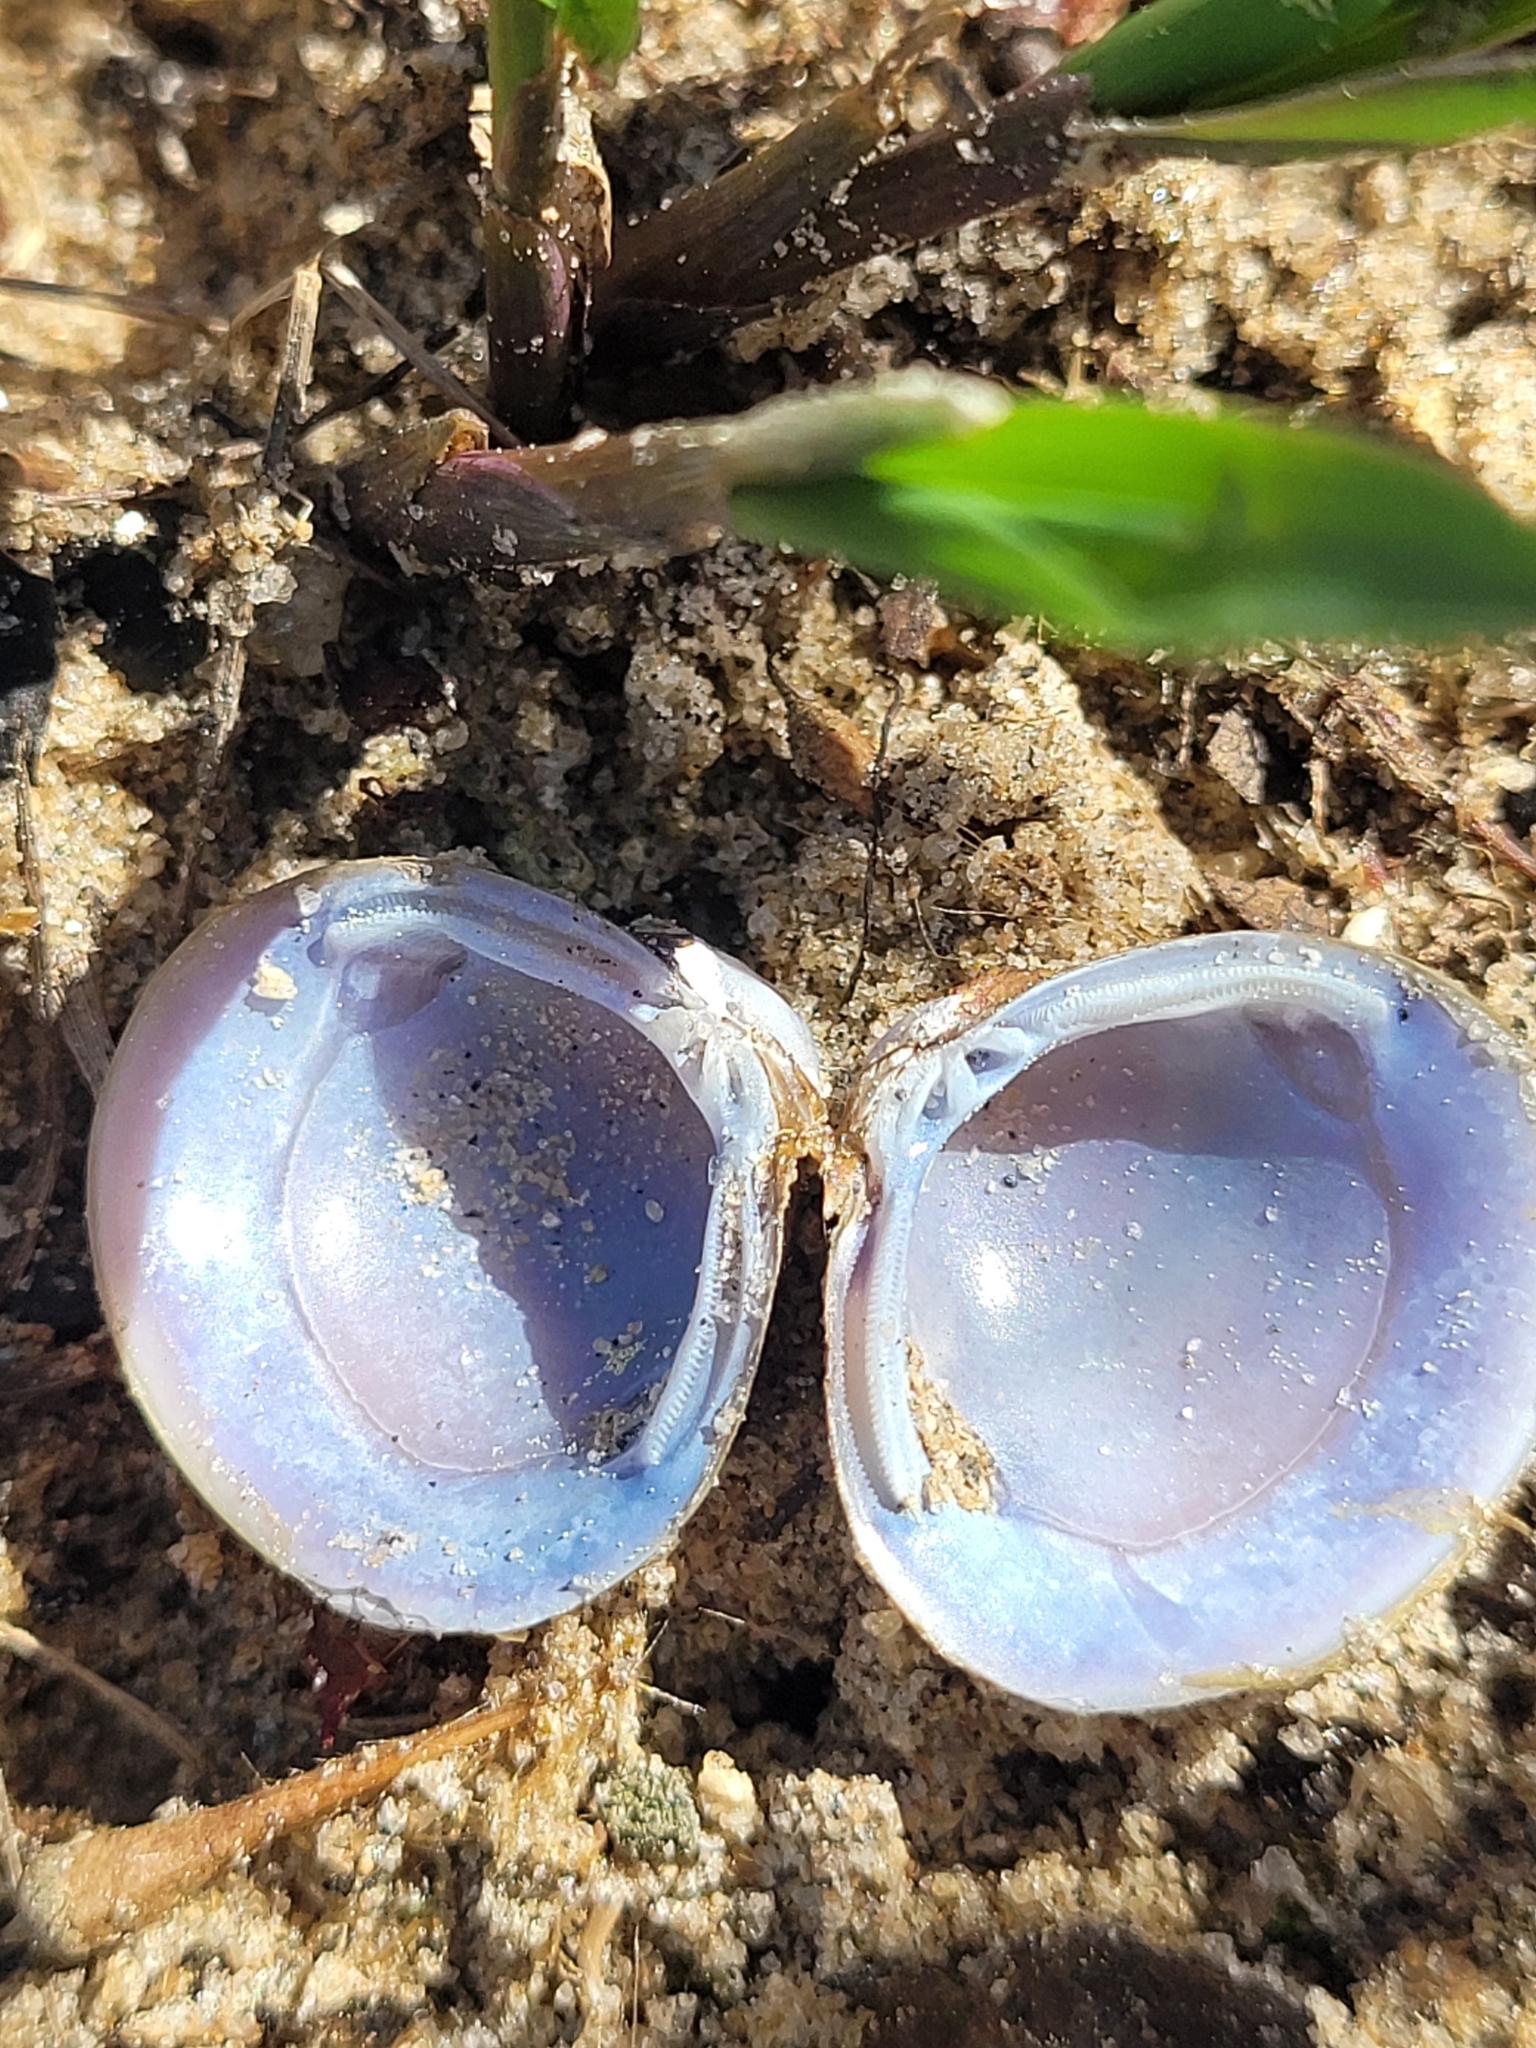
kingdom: Animalia
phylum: Mollusca
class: Bivalvia
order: Venerida
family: Cyrenidae
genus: Corbicula
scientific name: Corbicula fluminea
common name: Asian clam
